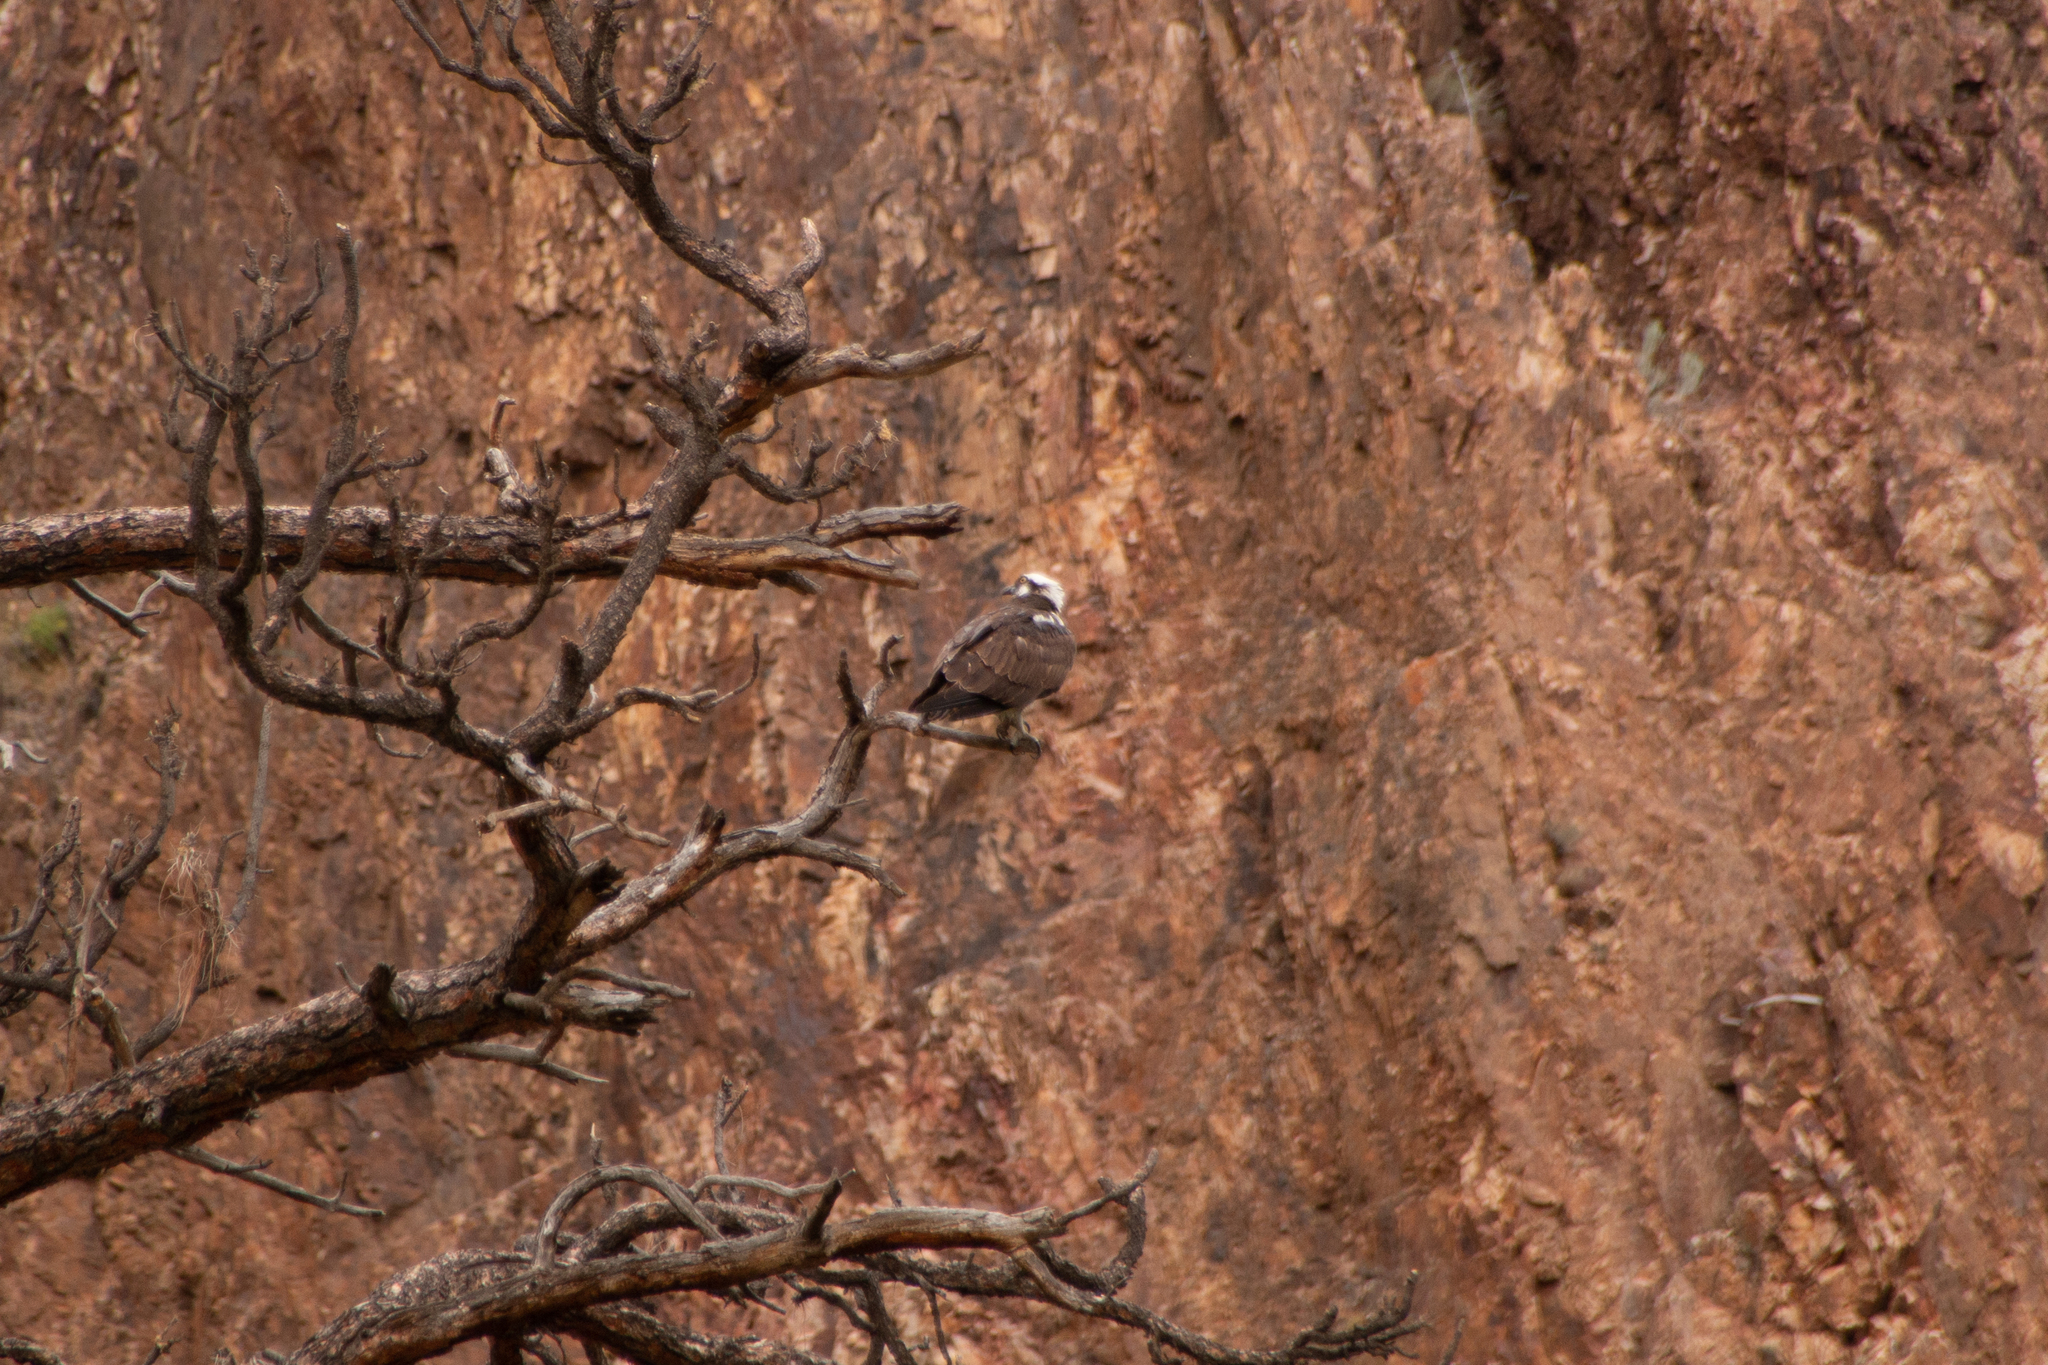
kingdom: Animalia
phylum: Chordata
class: Aves
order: Accipitriformes
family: Pandionidae
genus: Pandion
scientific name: Pandion haliaetus
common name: Osprey
